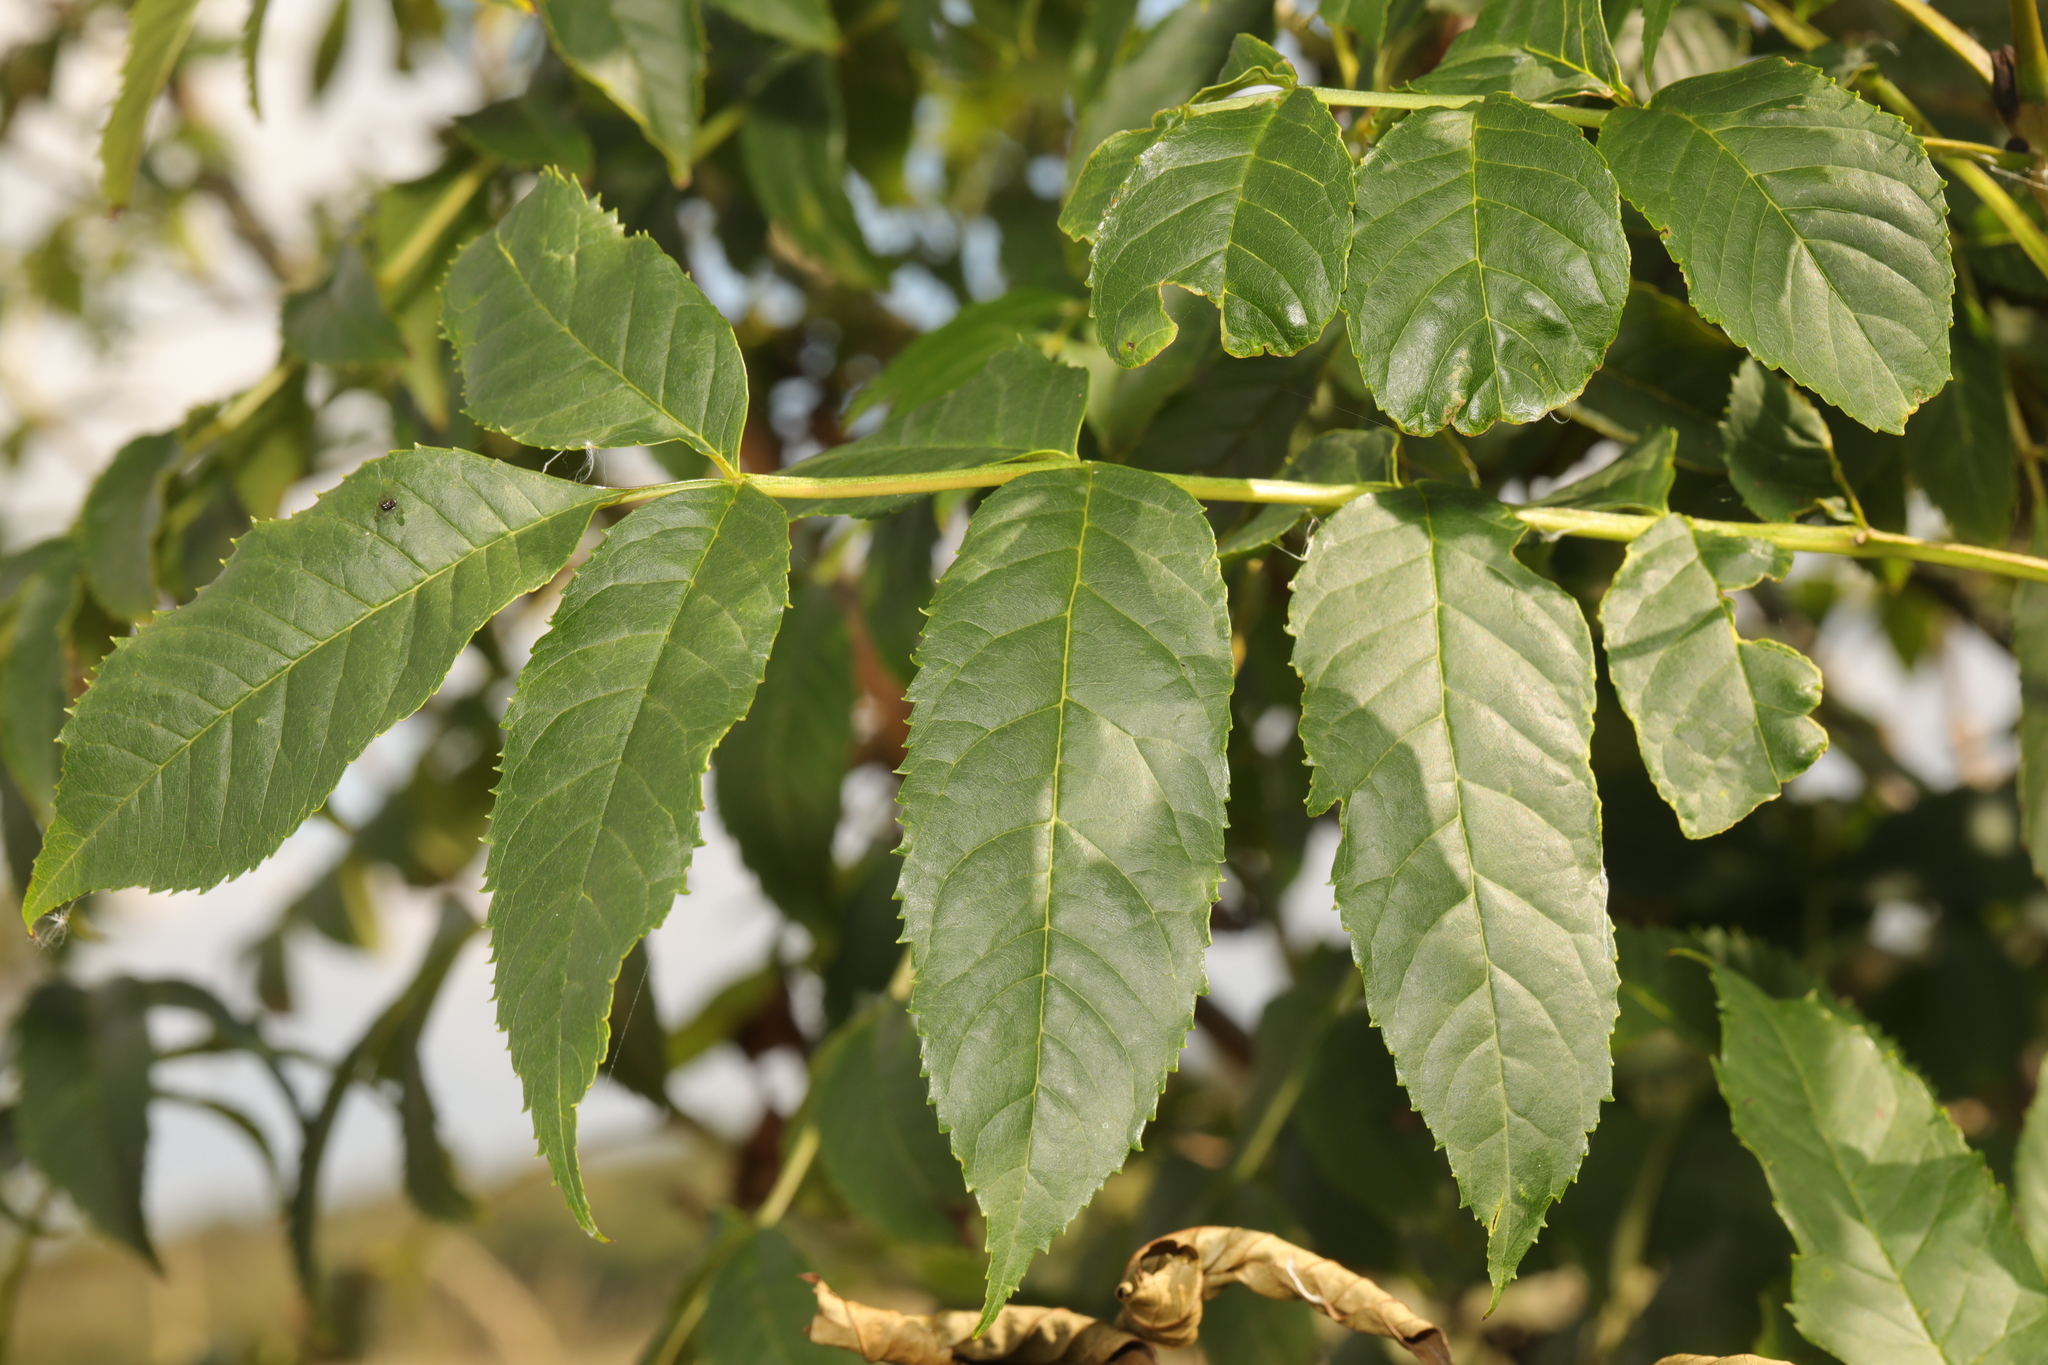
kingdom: Plantae
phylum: Tracheophyta
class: Magnoliopsida
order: Lamiales
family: Oleaceae
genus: Fraxinus
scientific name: Fraxinus excelsior
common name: European ash
